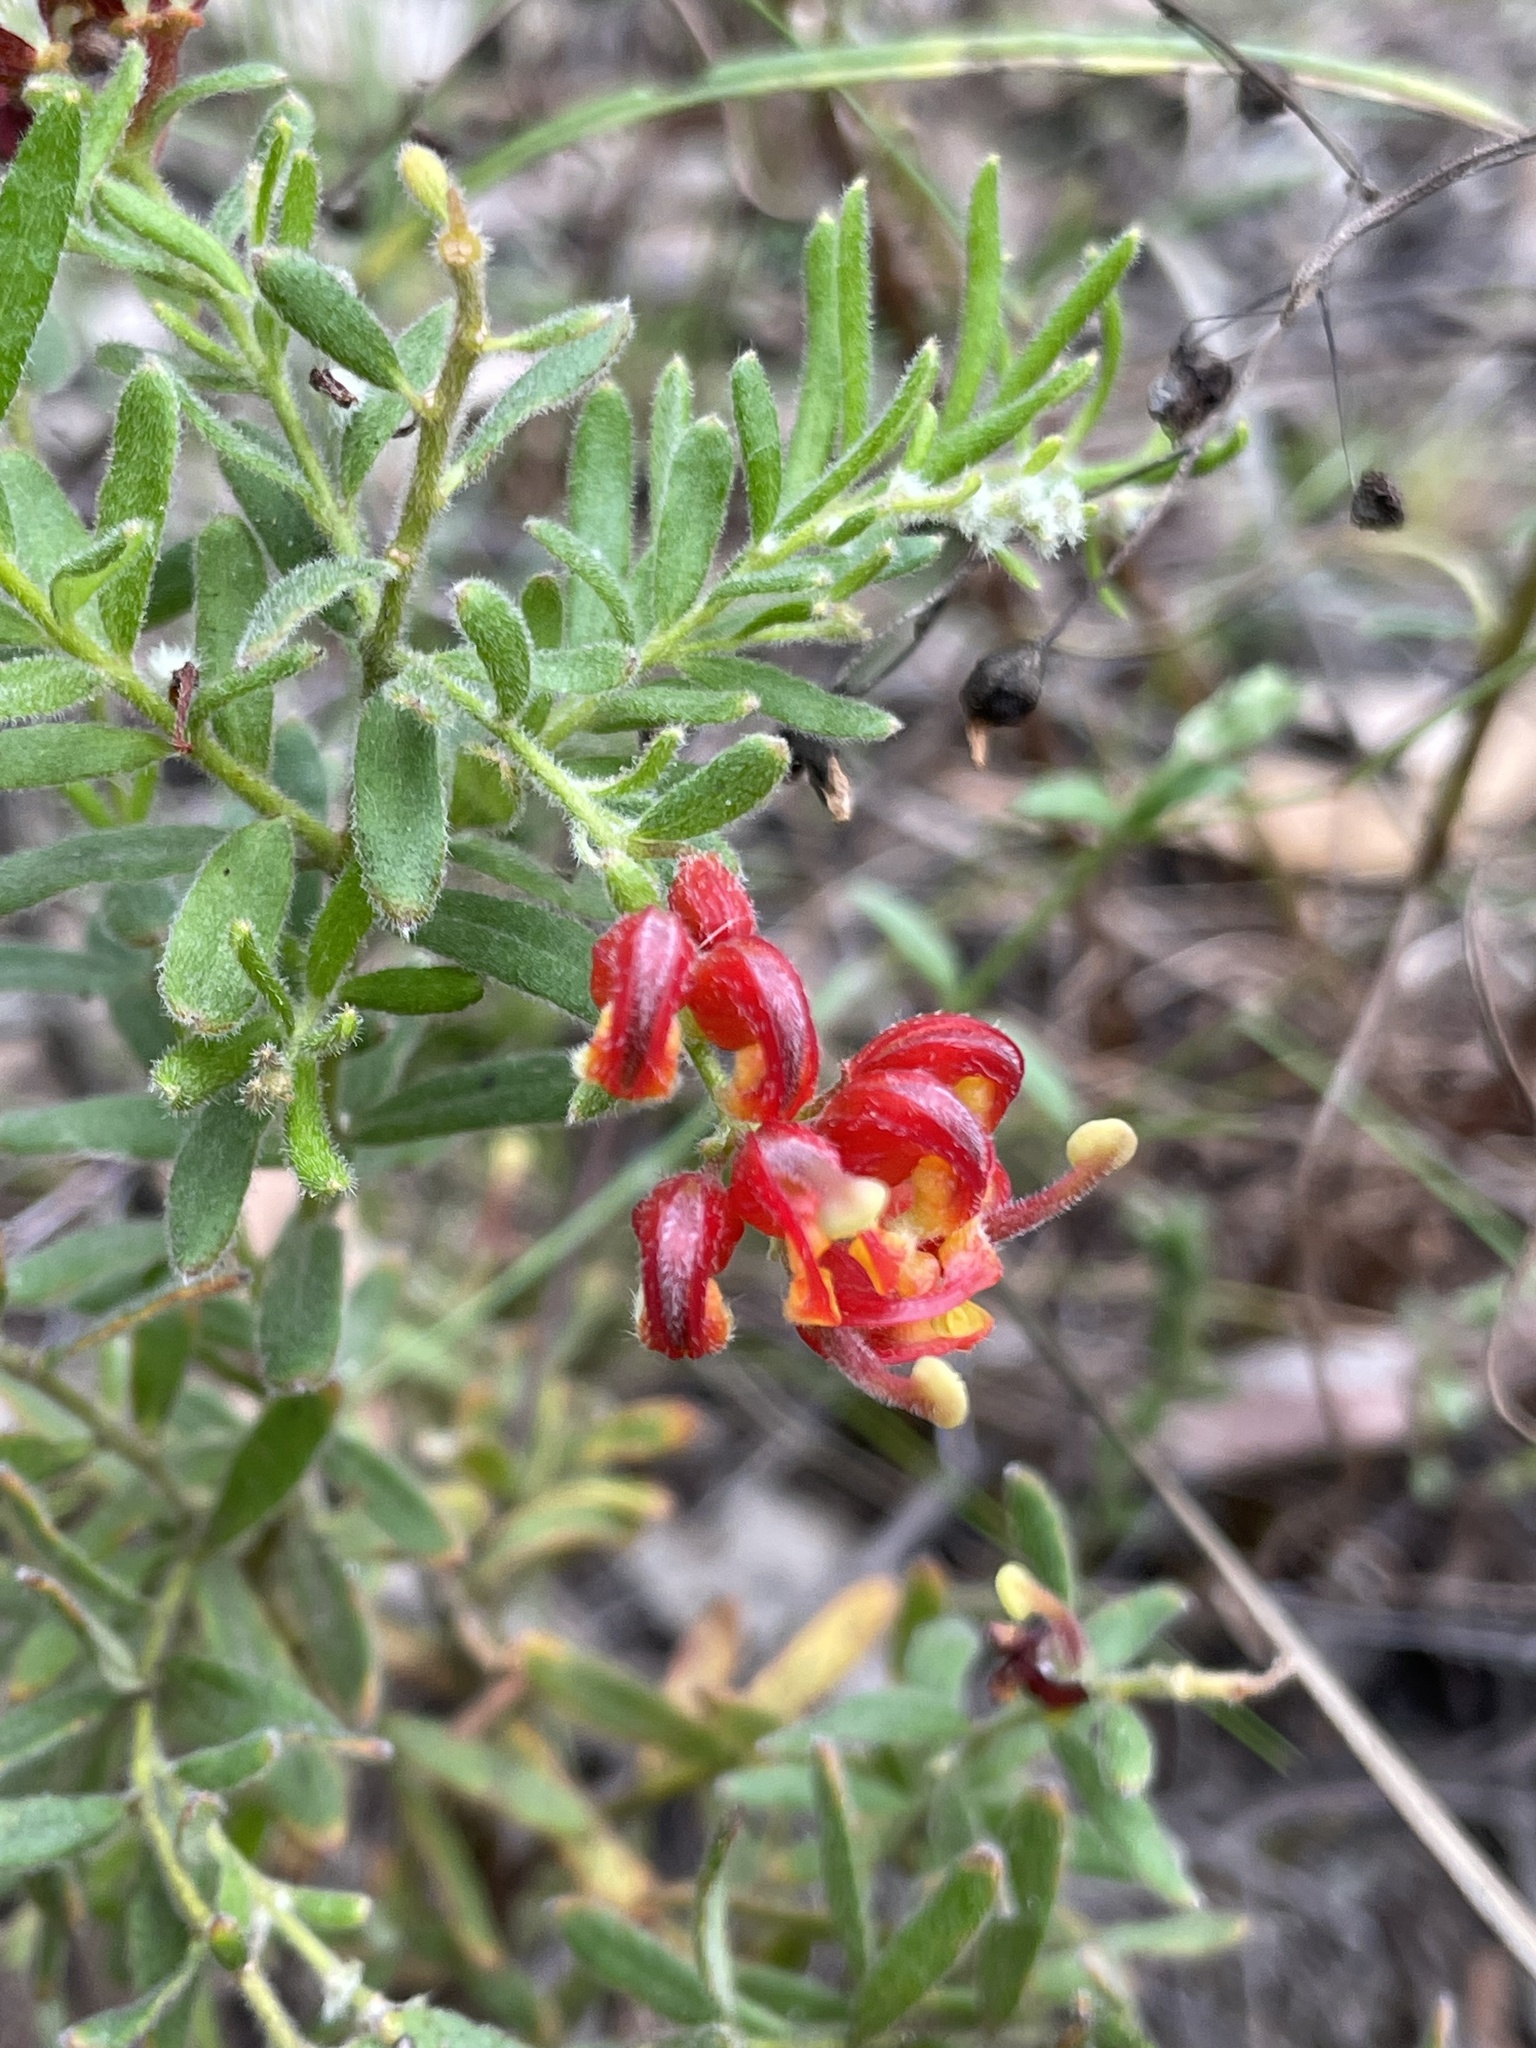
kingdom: Plantae
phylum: Tracheophyta
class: Magnoliopsida
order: Proteales
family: Proteaceae
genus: Grevillea
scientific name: Grevillea alpina
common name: Catclaws grevillea
